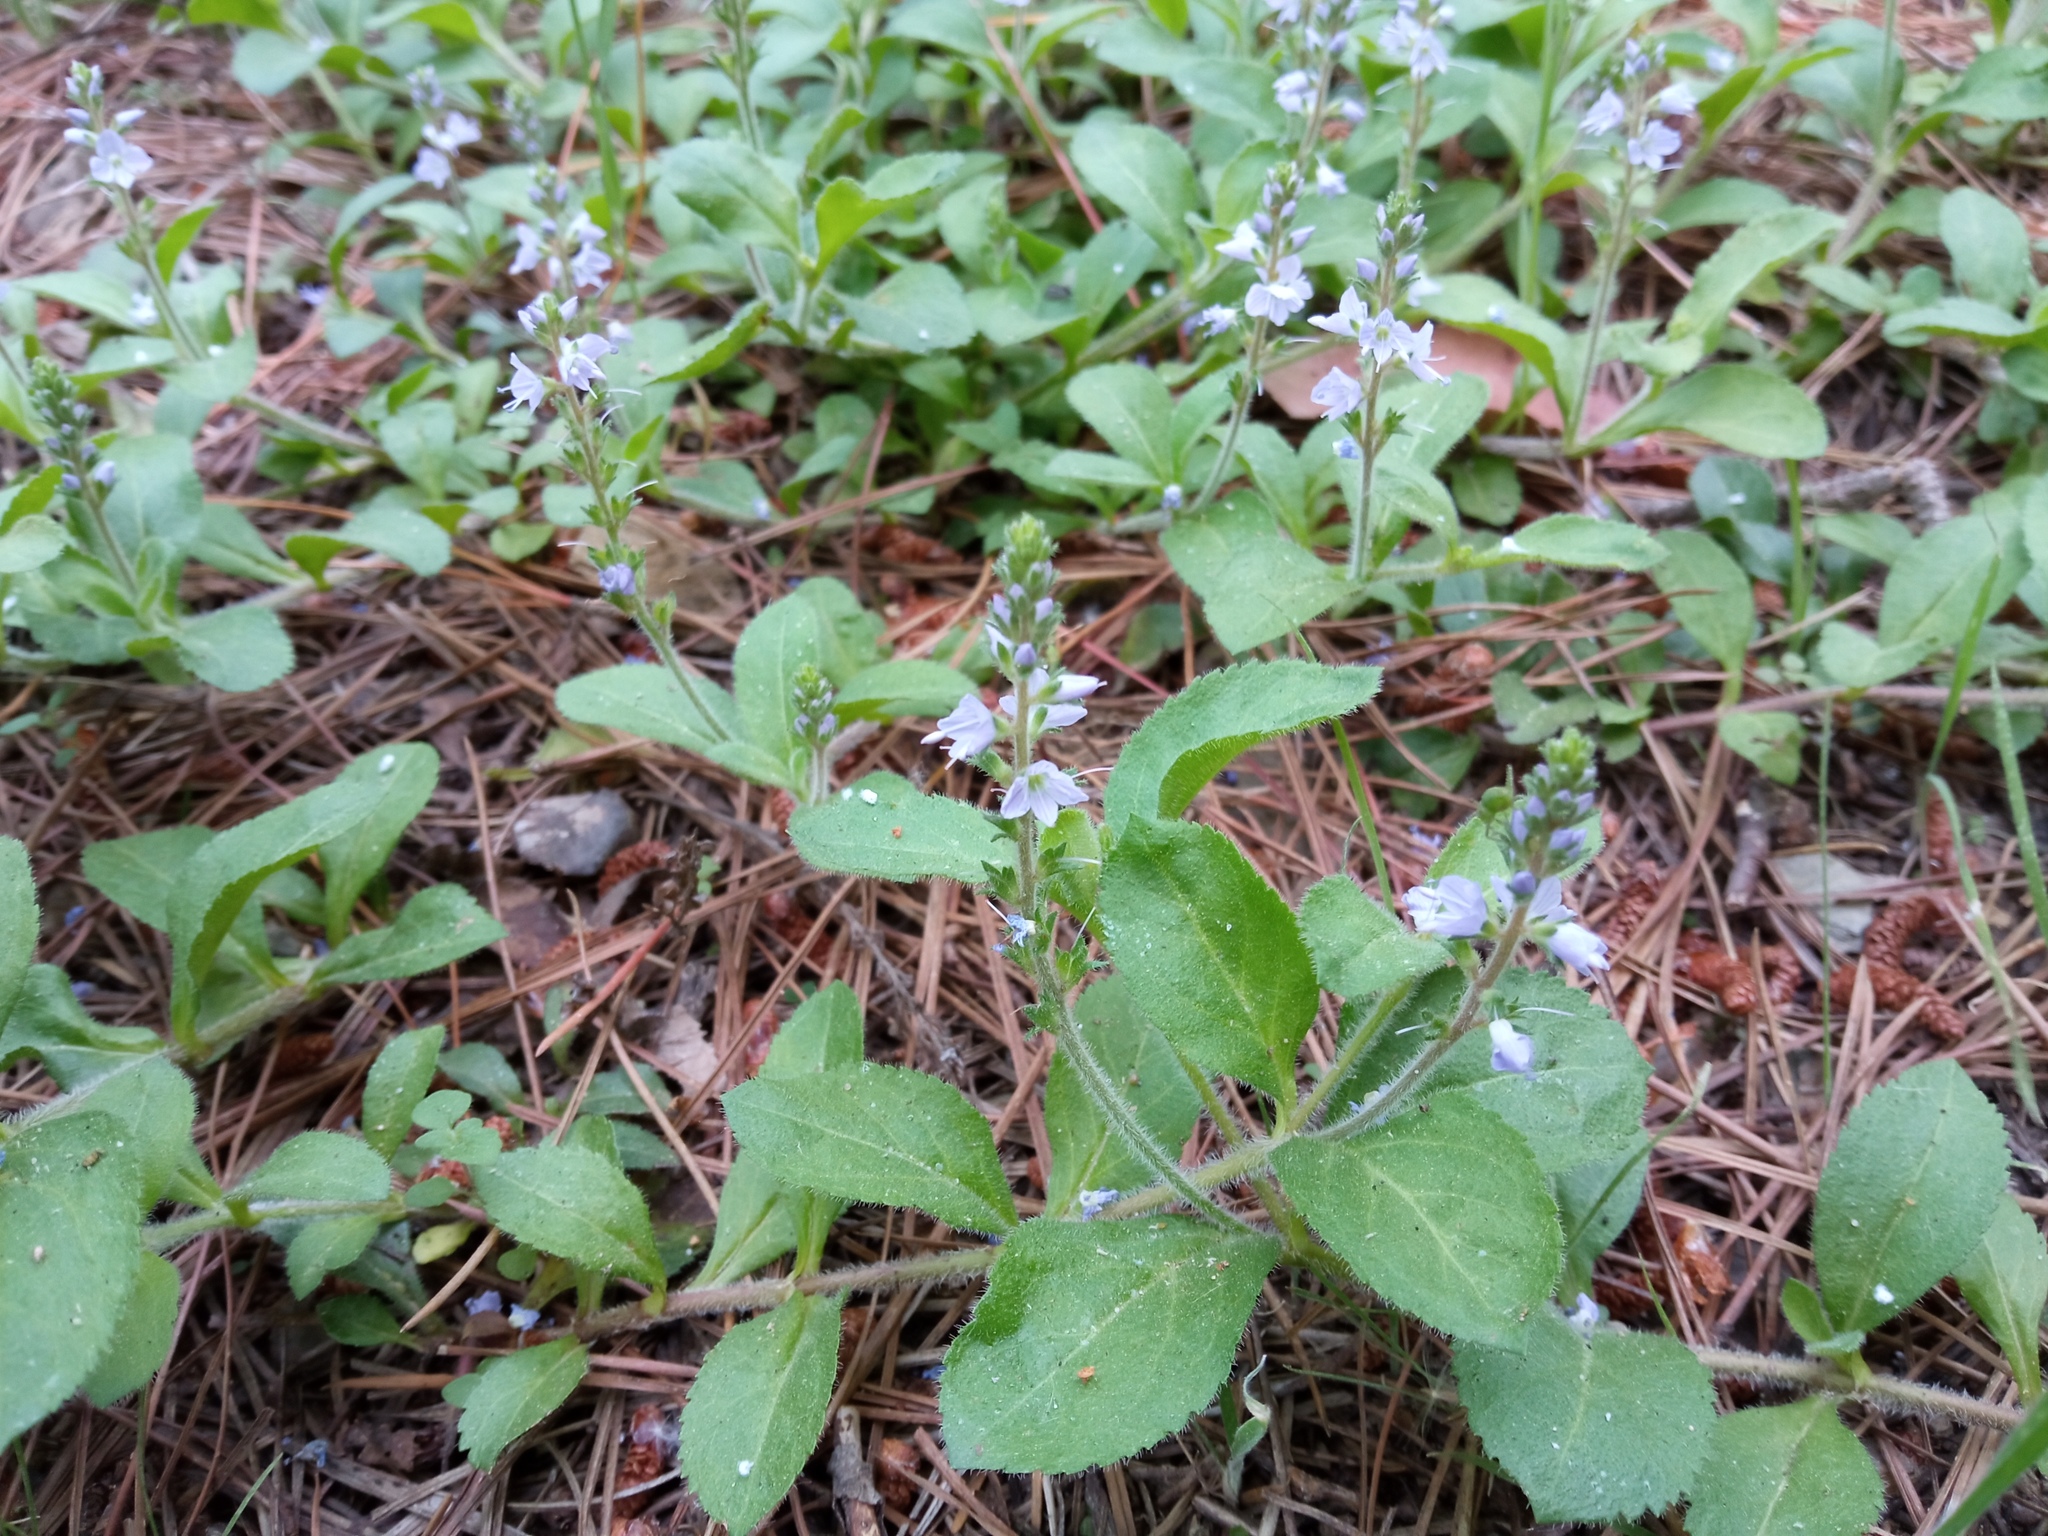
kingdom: Plantae
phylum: Tracheophyta
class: Magnoliopsida
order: Lamiales
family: Plantaginaceae
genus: Veronica
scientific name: Veronica officinalis
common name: Common speedwell
